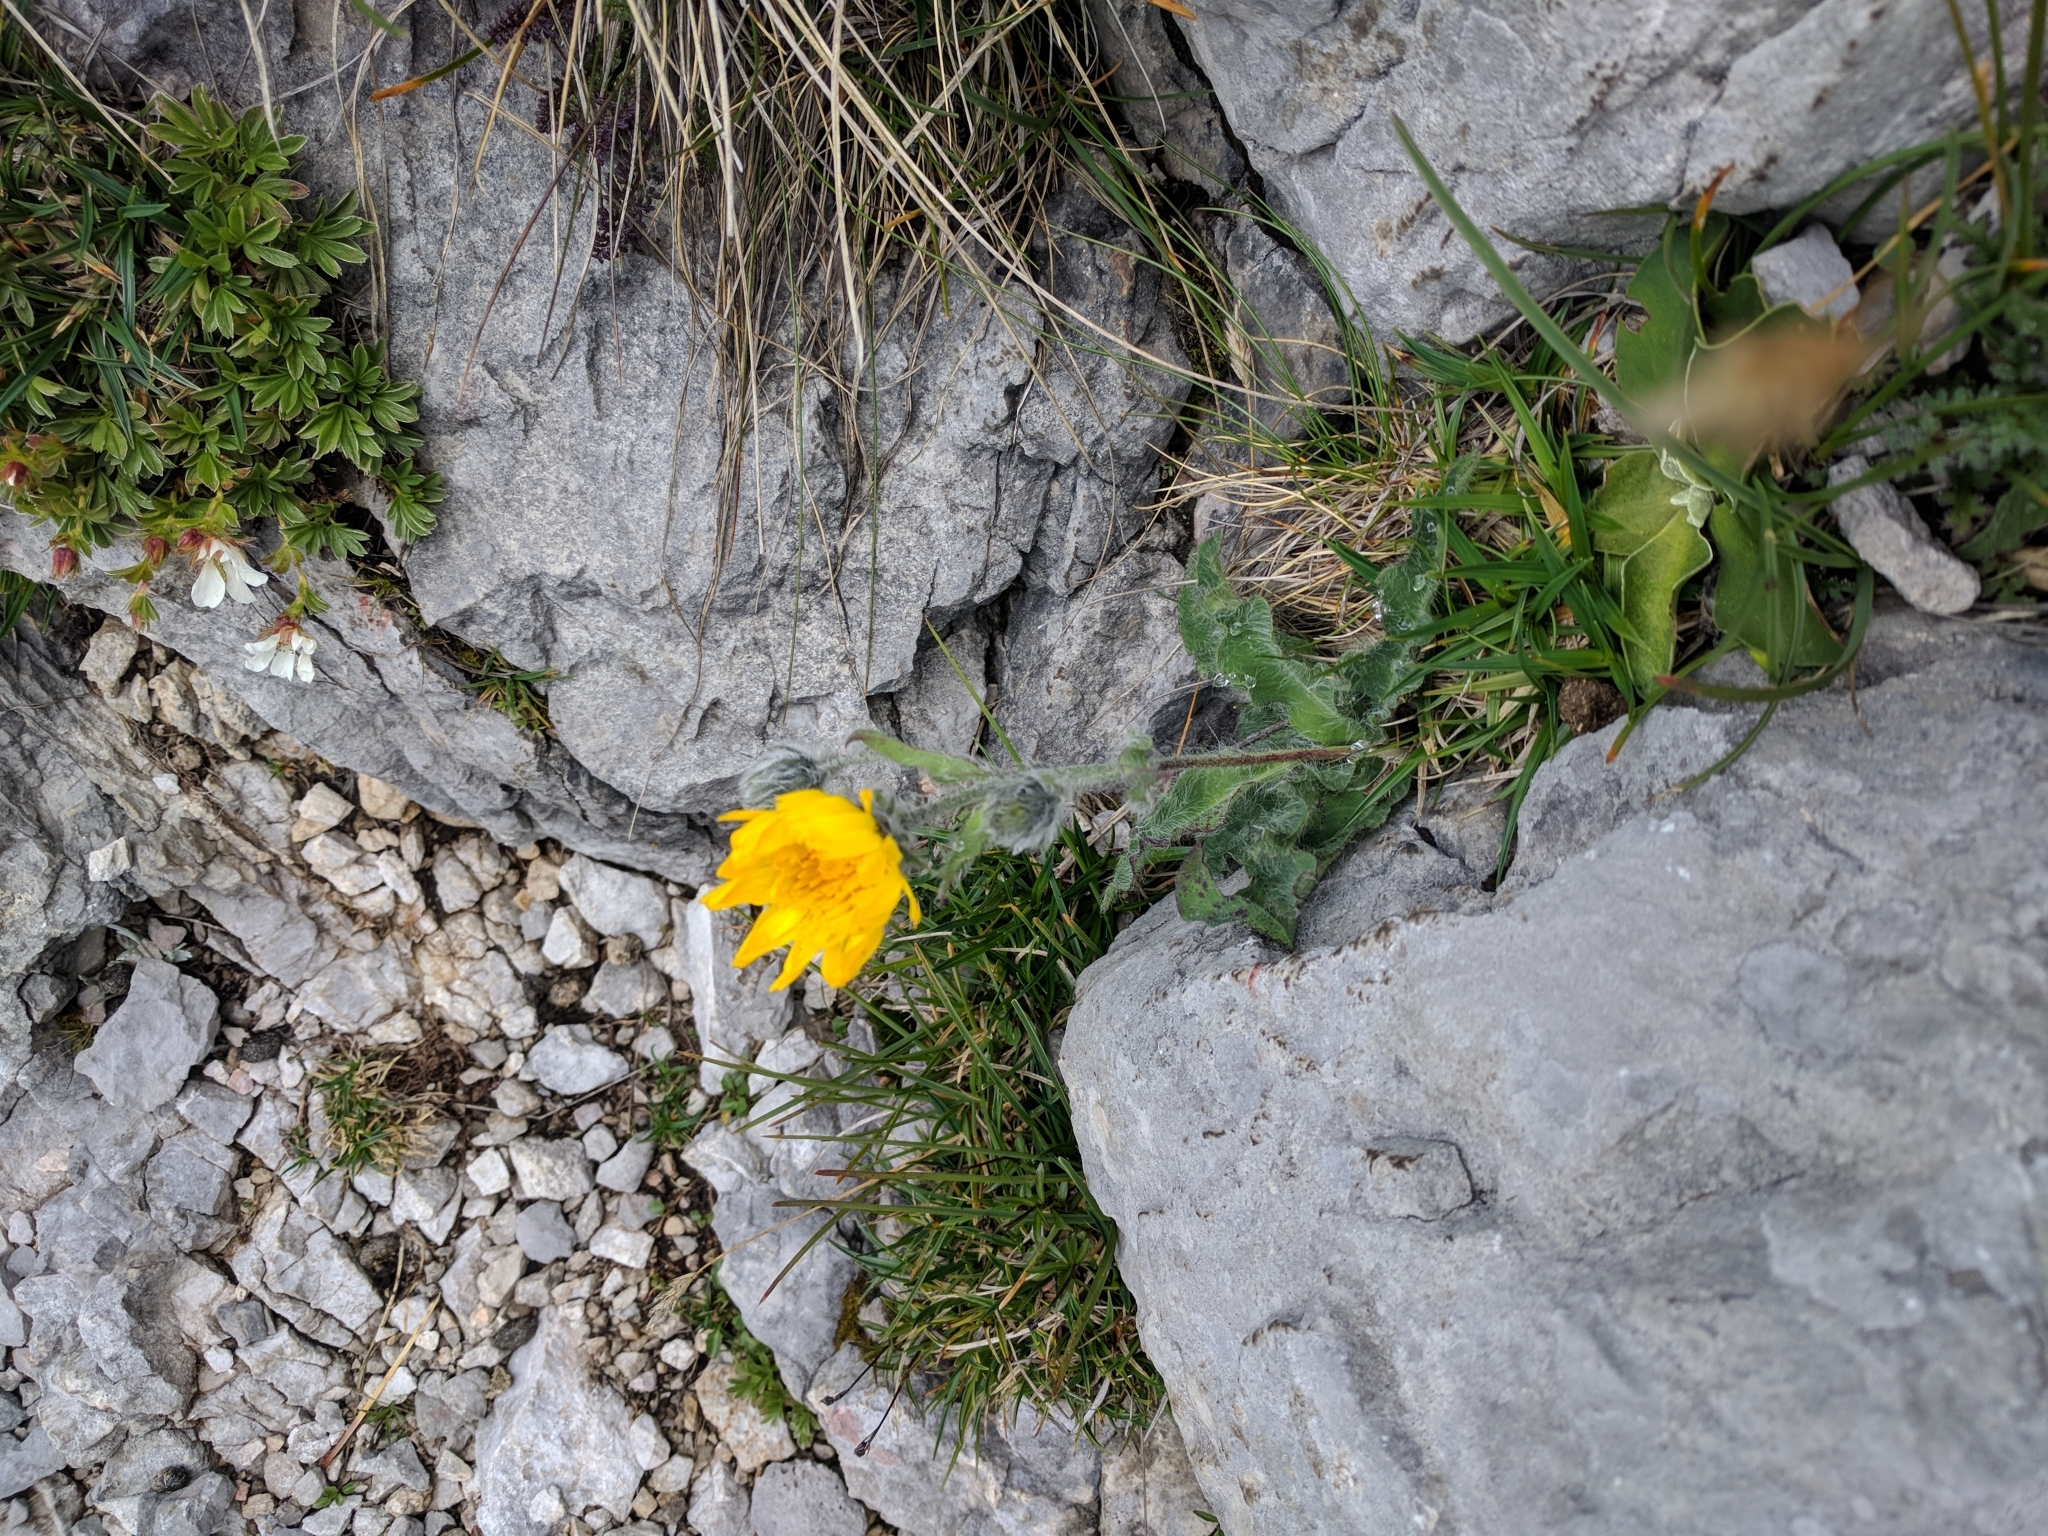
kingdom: Plantae
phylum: Tracheophyta
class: Magnoliopsida
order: Asterales
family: Asteraceae
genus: Hieracium
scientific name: Hieracium villosum
